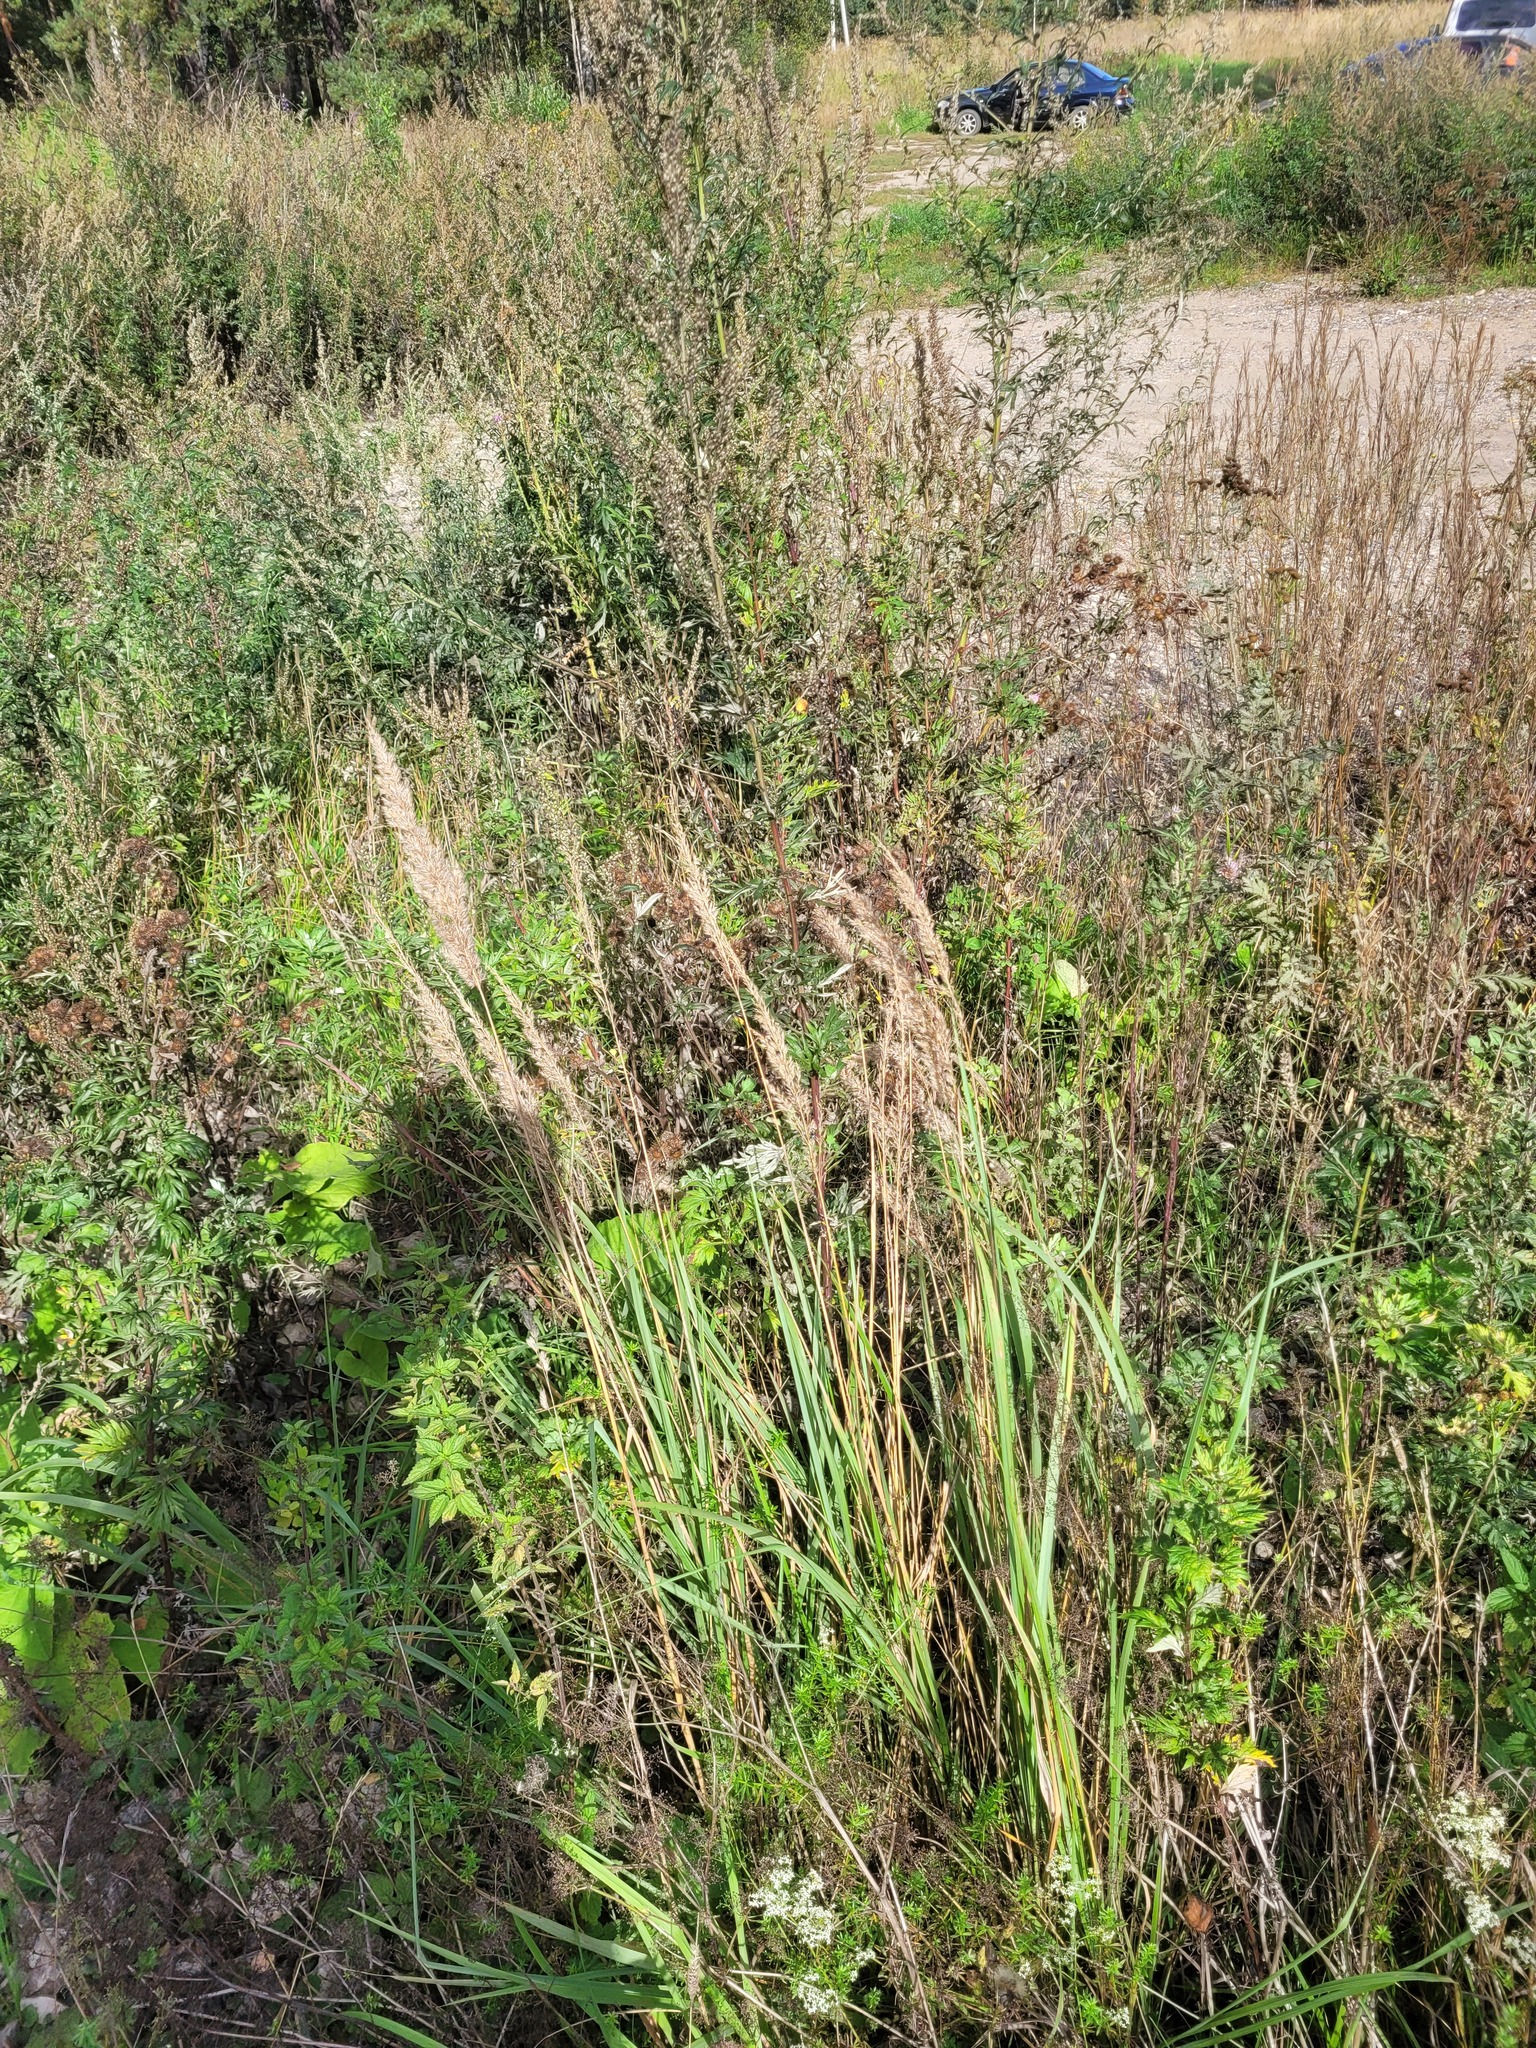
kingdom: Plantae
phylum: Tracheophyta
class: Liliopsida
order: Poales
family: Poaceae
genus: Calamagrostis
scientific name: Calamagrostis epigejos
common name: Wood small-reed
